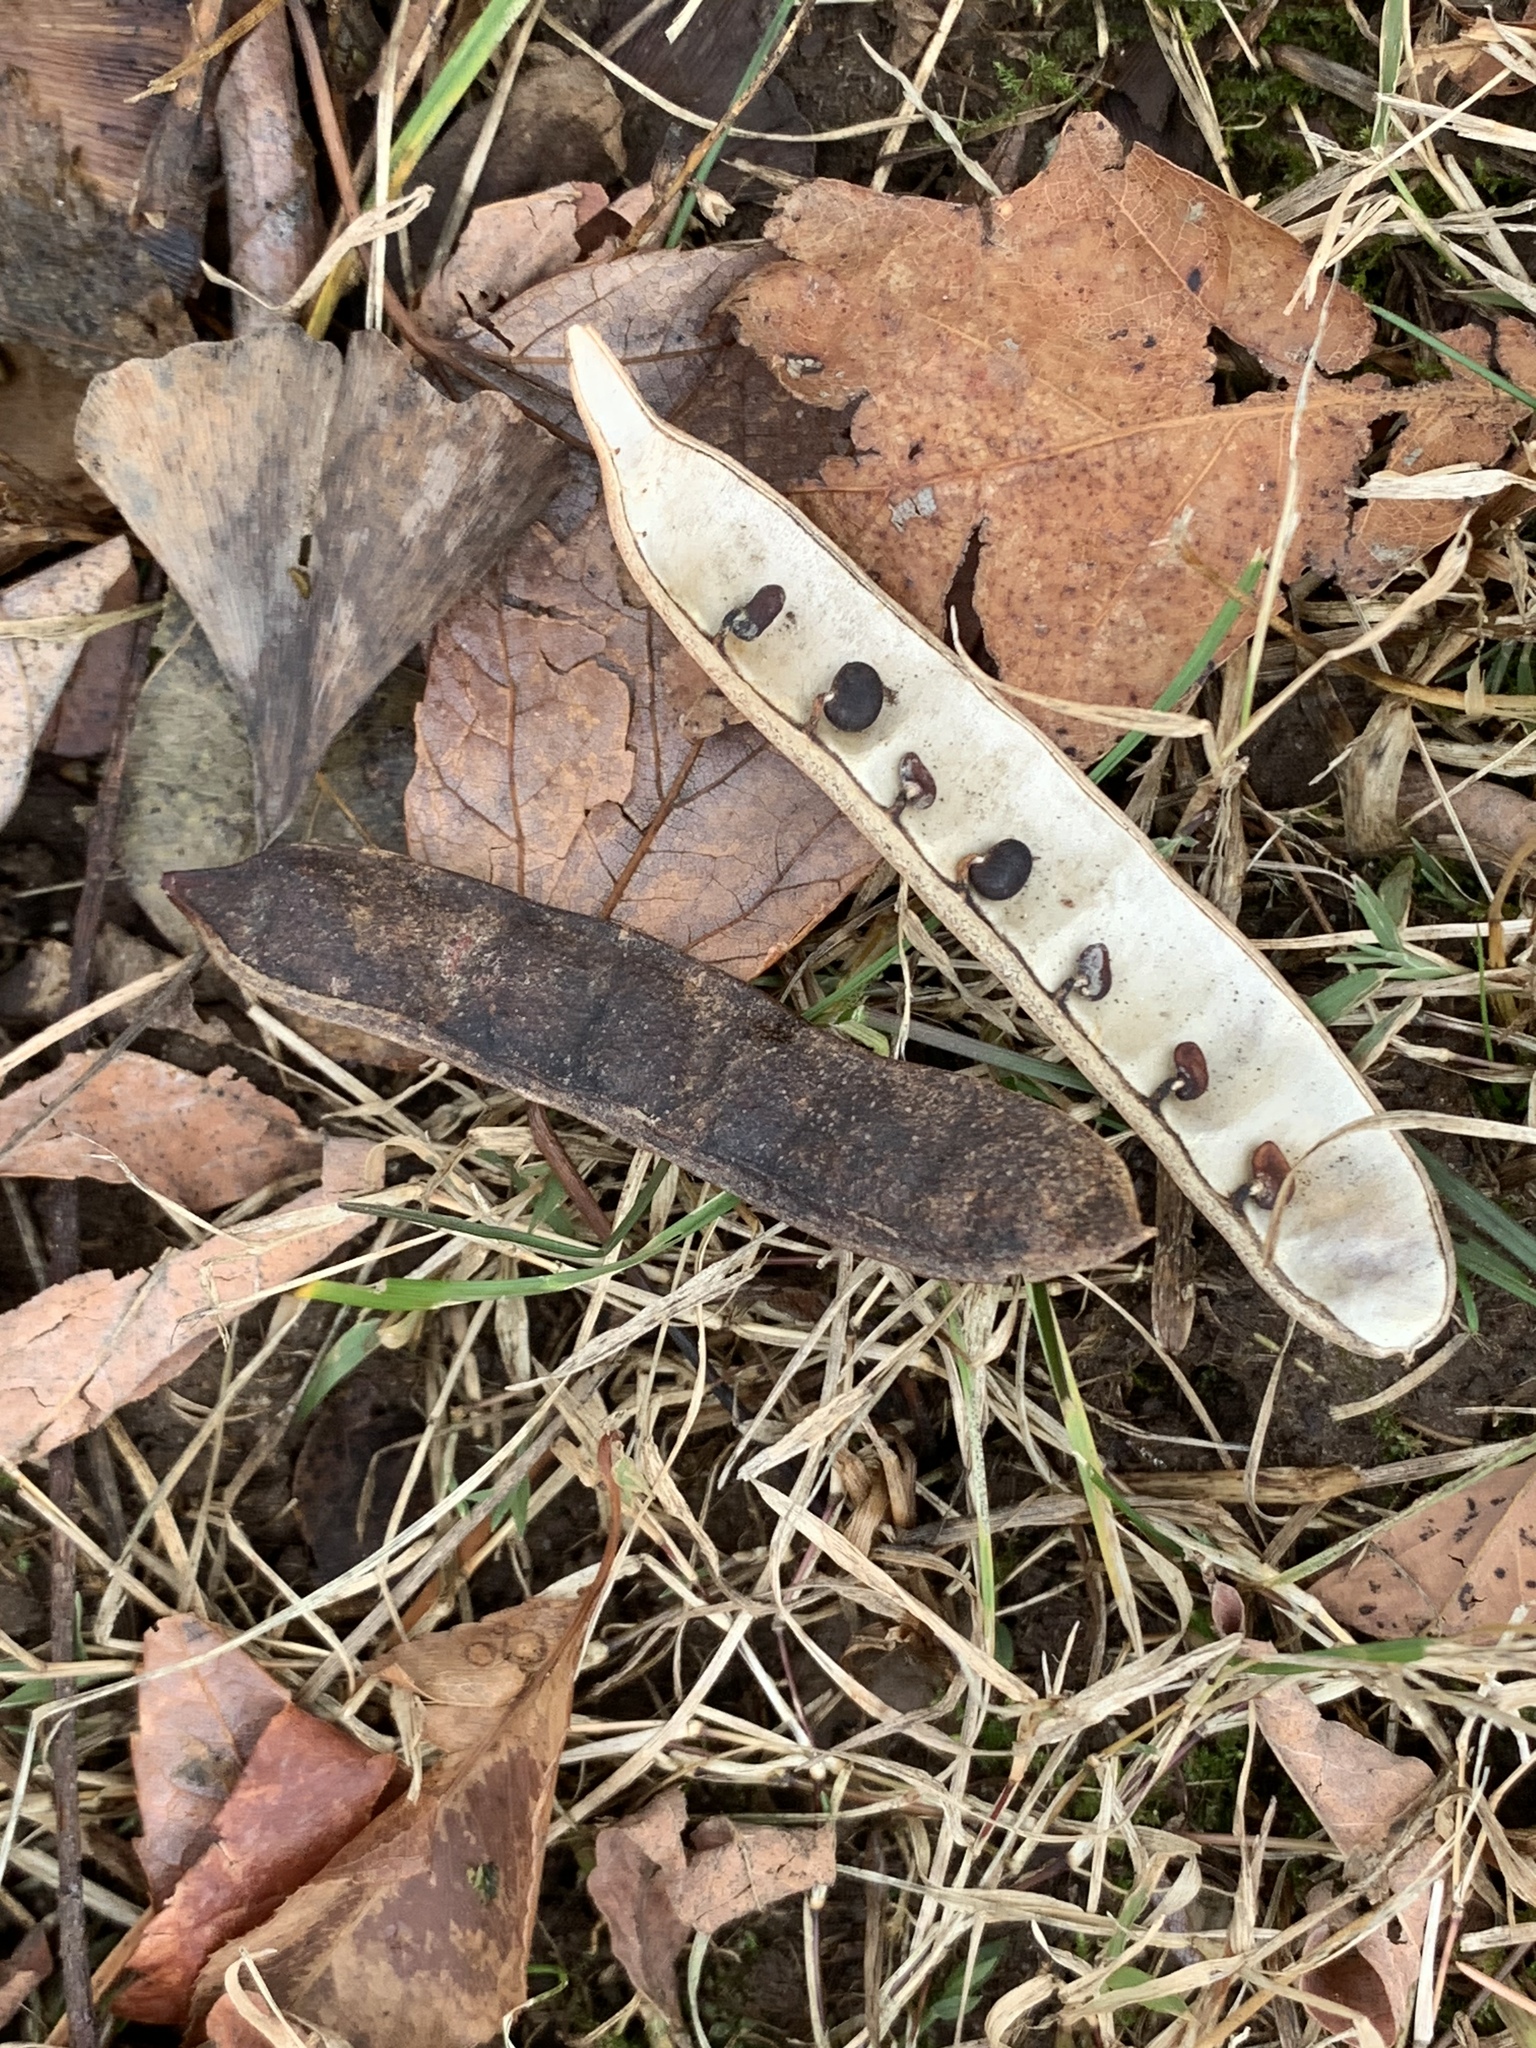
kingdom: Plantae
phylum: Tracheophyta
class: Magnoliopsida
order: Fabales
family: Fabaceae
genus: Robinia
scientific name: Robinia pseudoacacia
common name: Black locust
